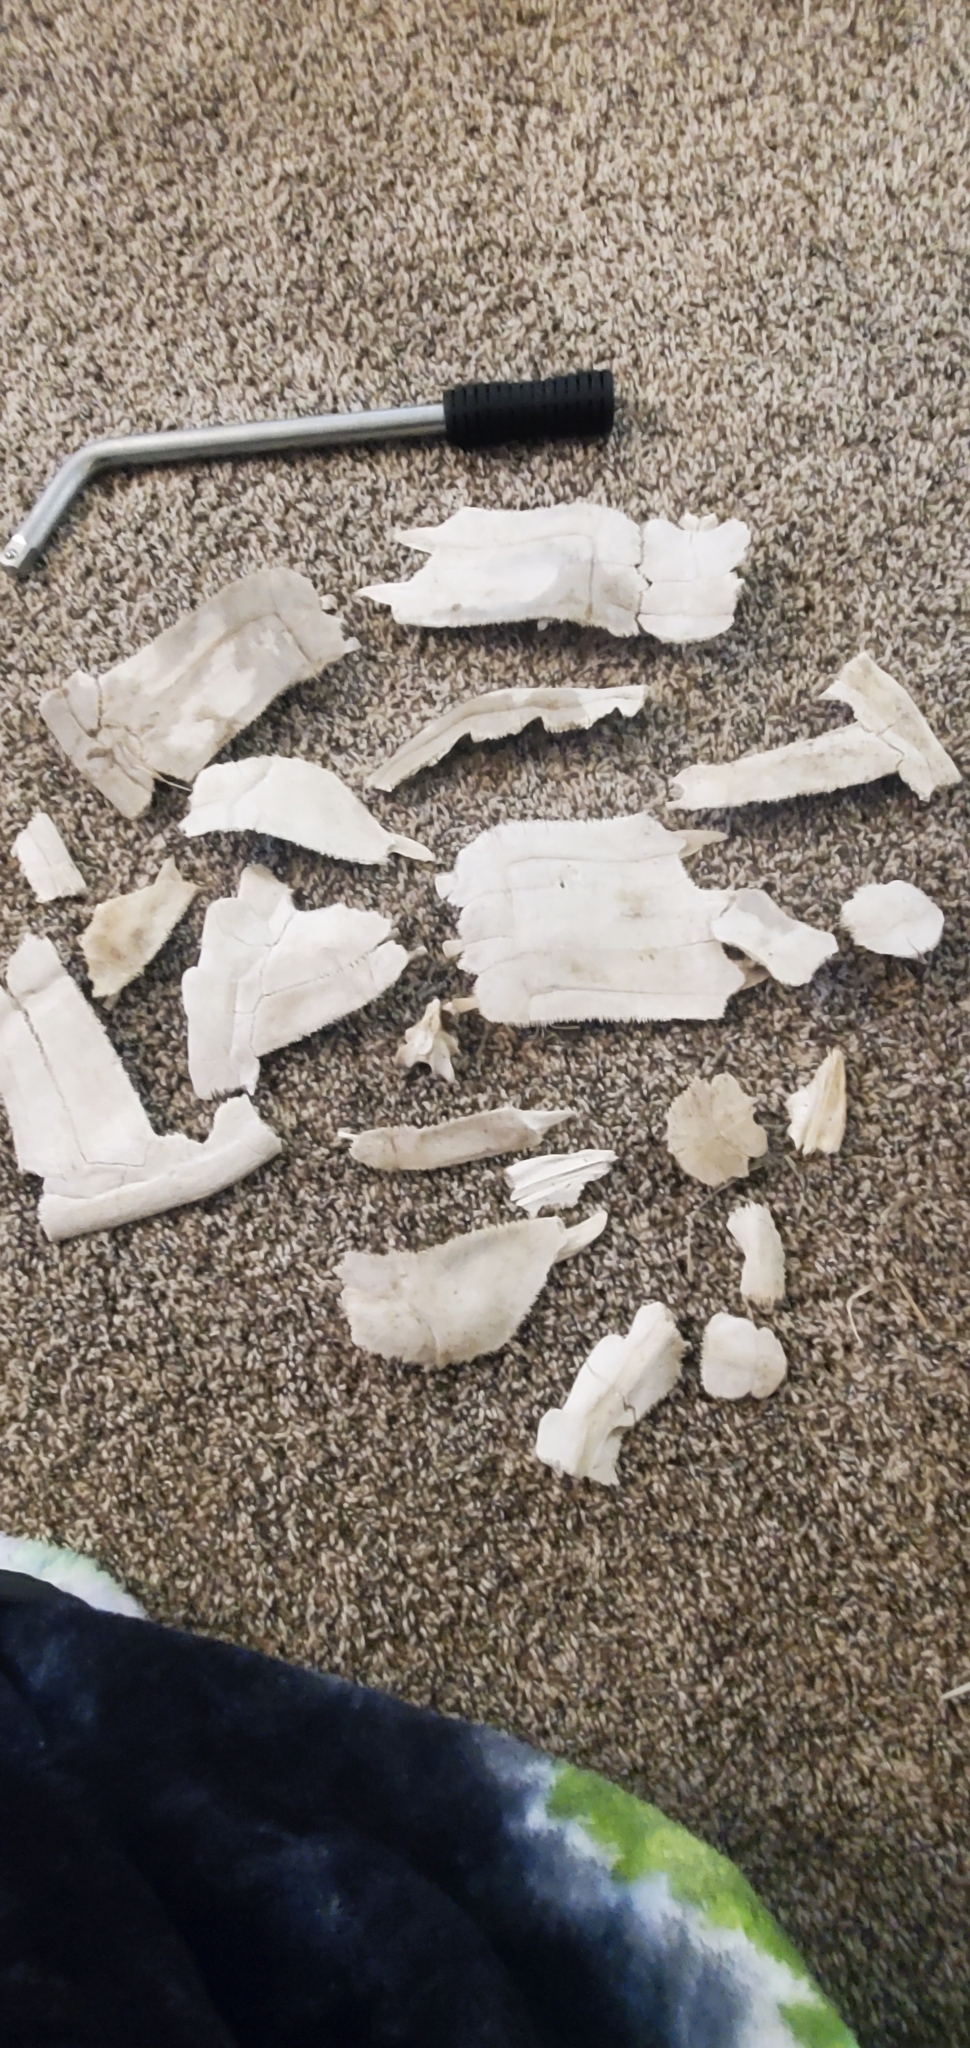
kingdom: Animalia
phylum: Chordata
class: Testudines
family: Chelydridae
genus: Chelydra
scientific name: Chelydra serpentina
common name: Common snapping turtle
